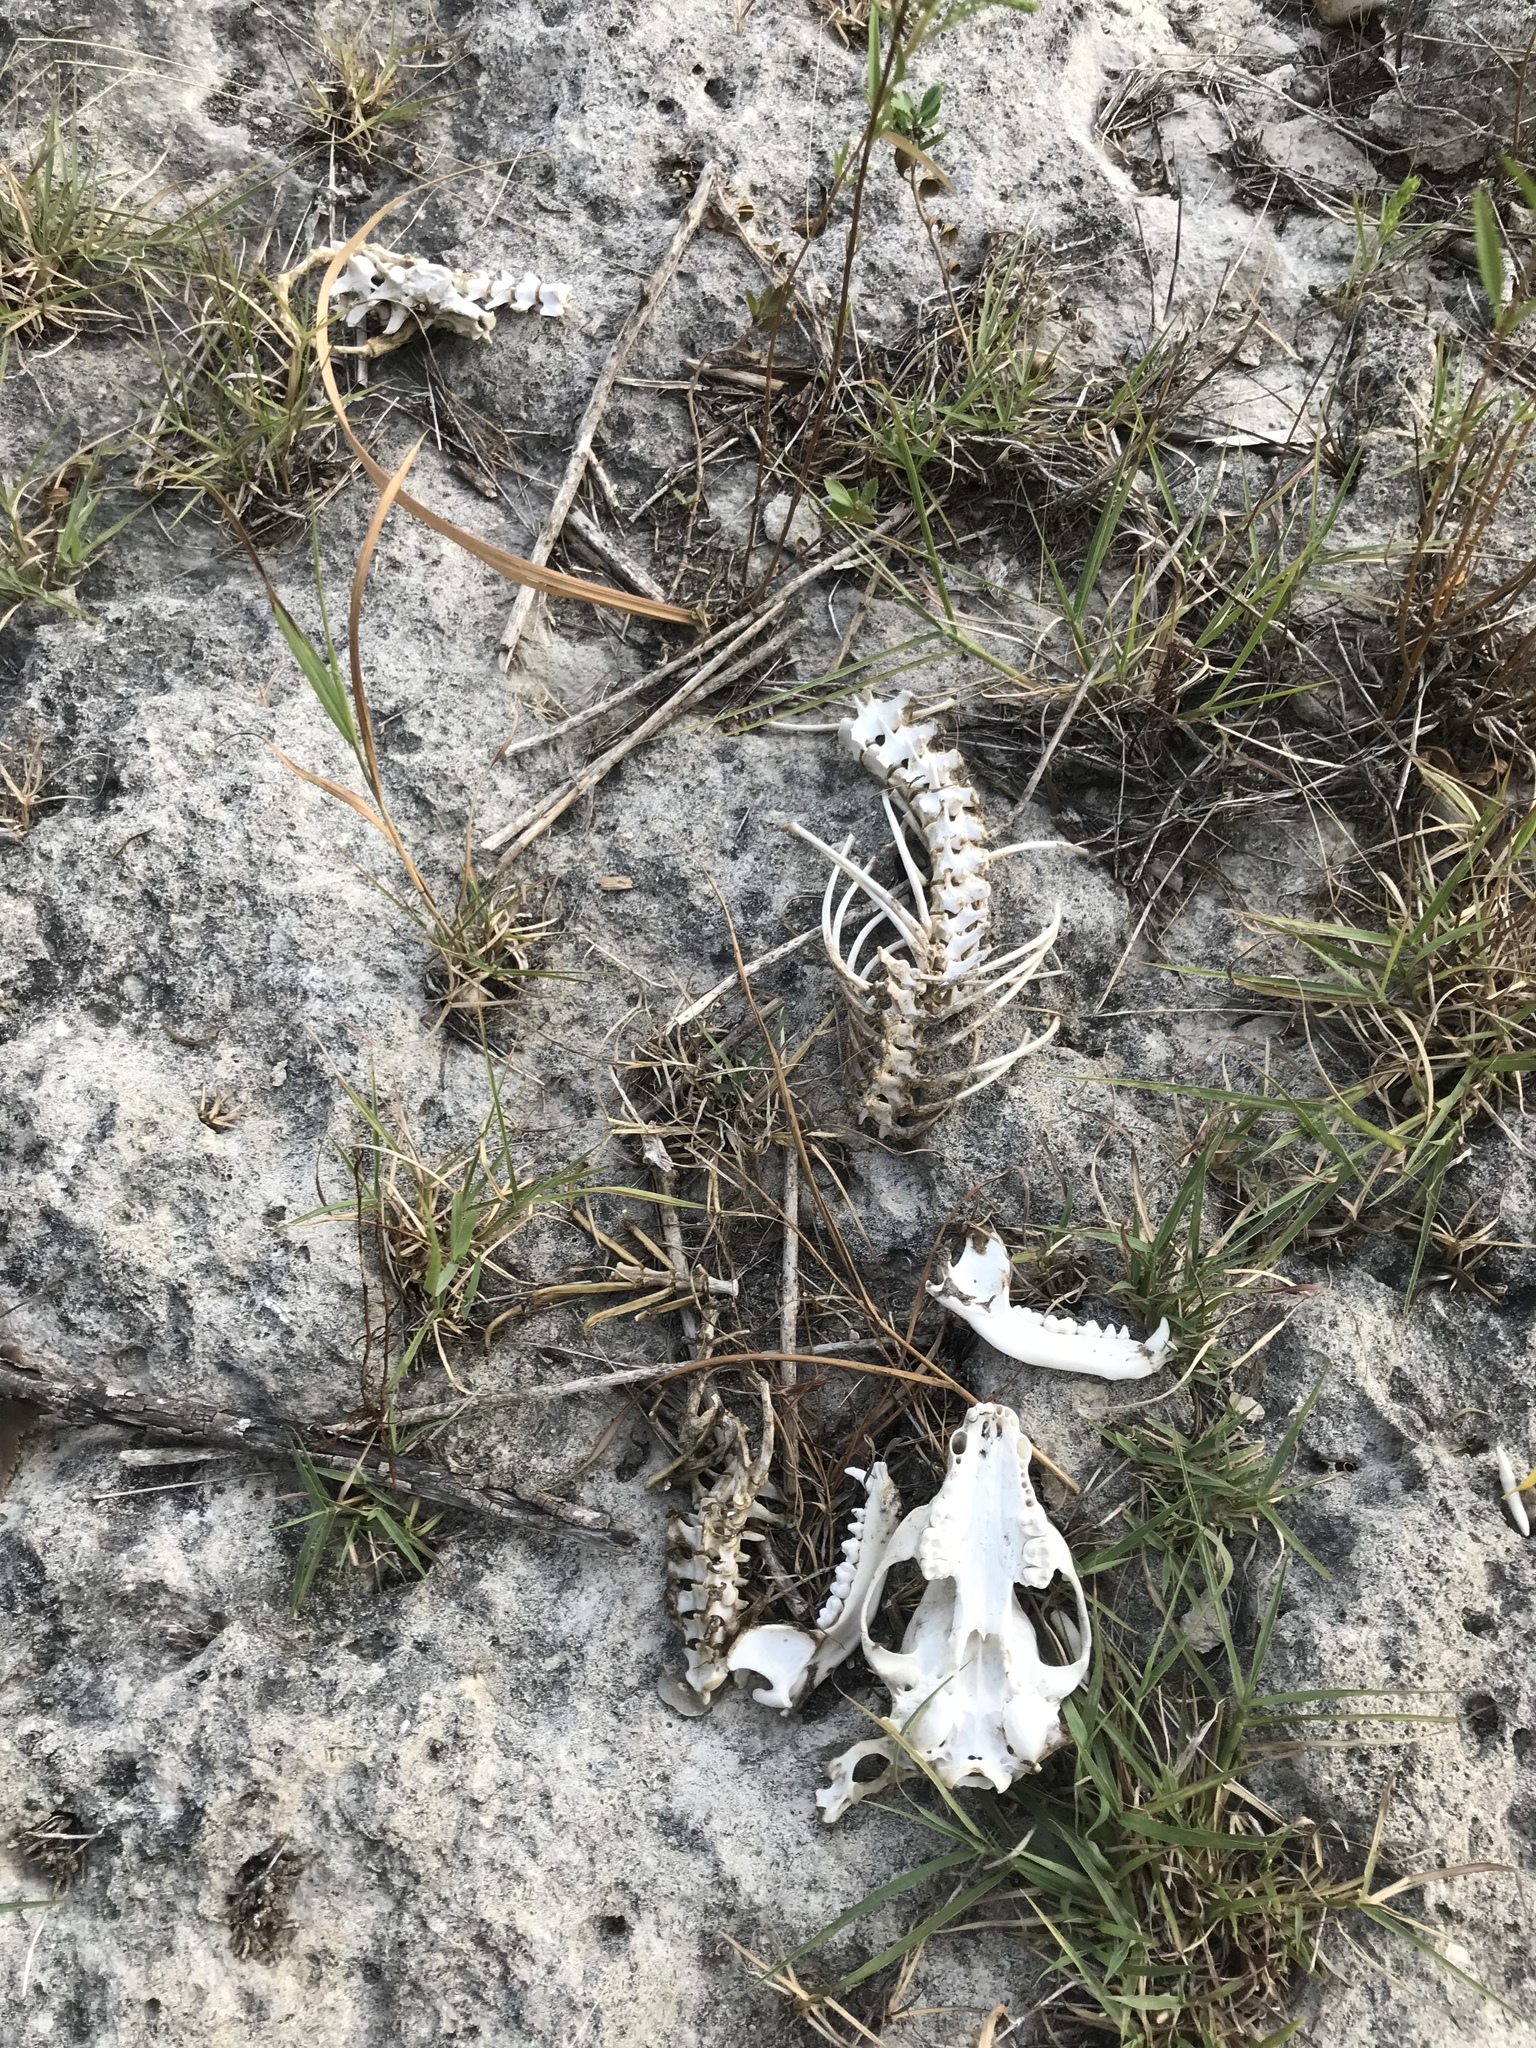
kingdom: Animalia
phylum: Chordata
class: Mammalia
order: Carnivora
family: Procyonidae
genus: Procyon
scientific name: Procyon lotor
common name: Raccoon
